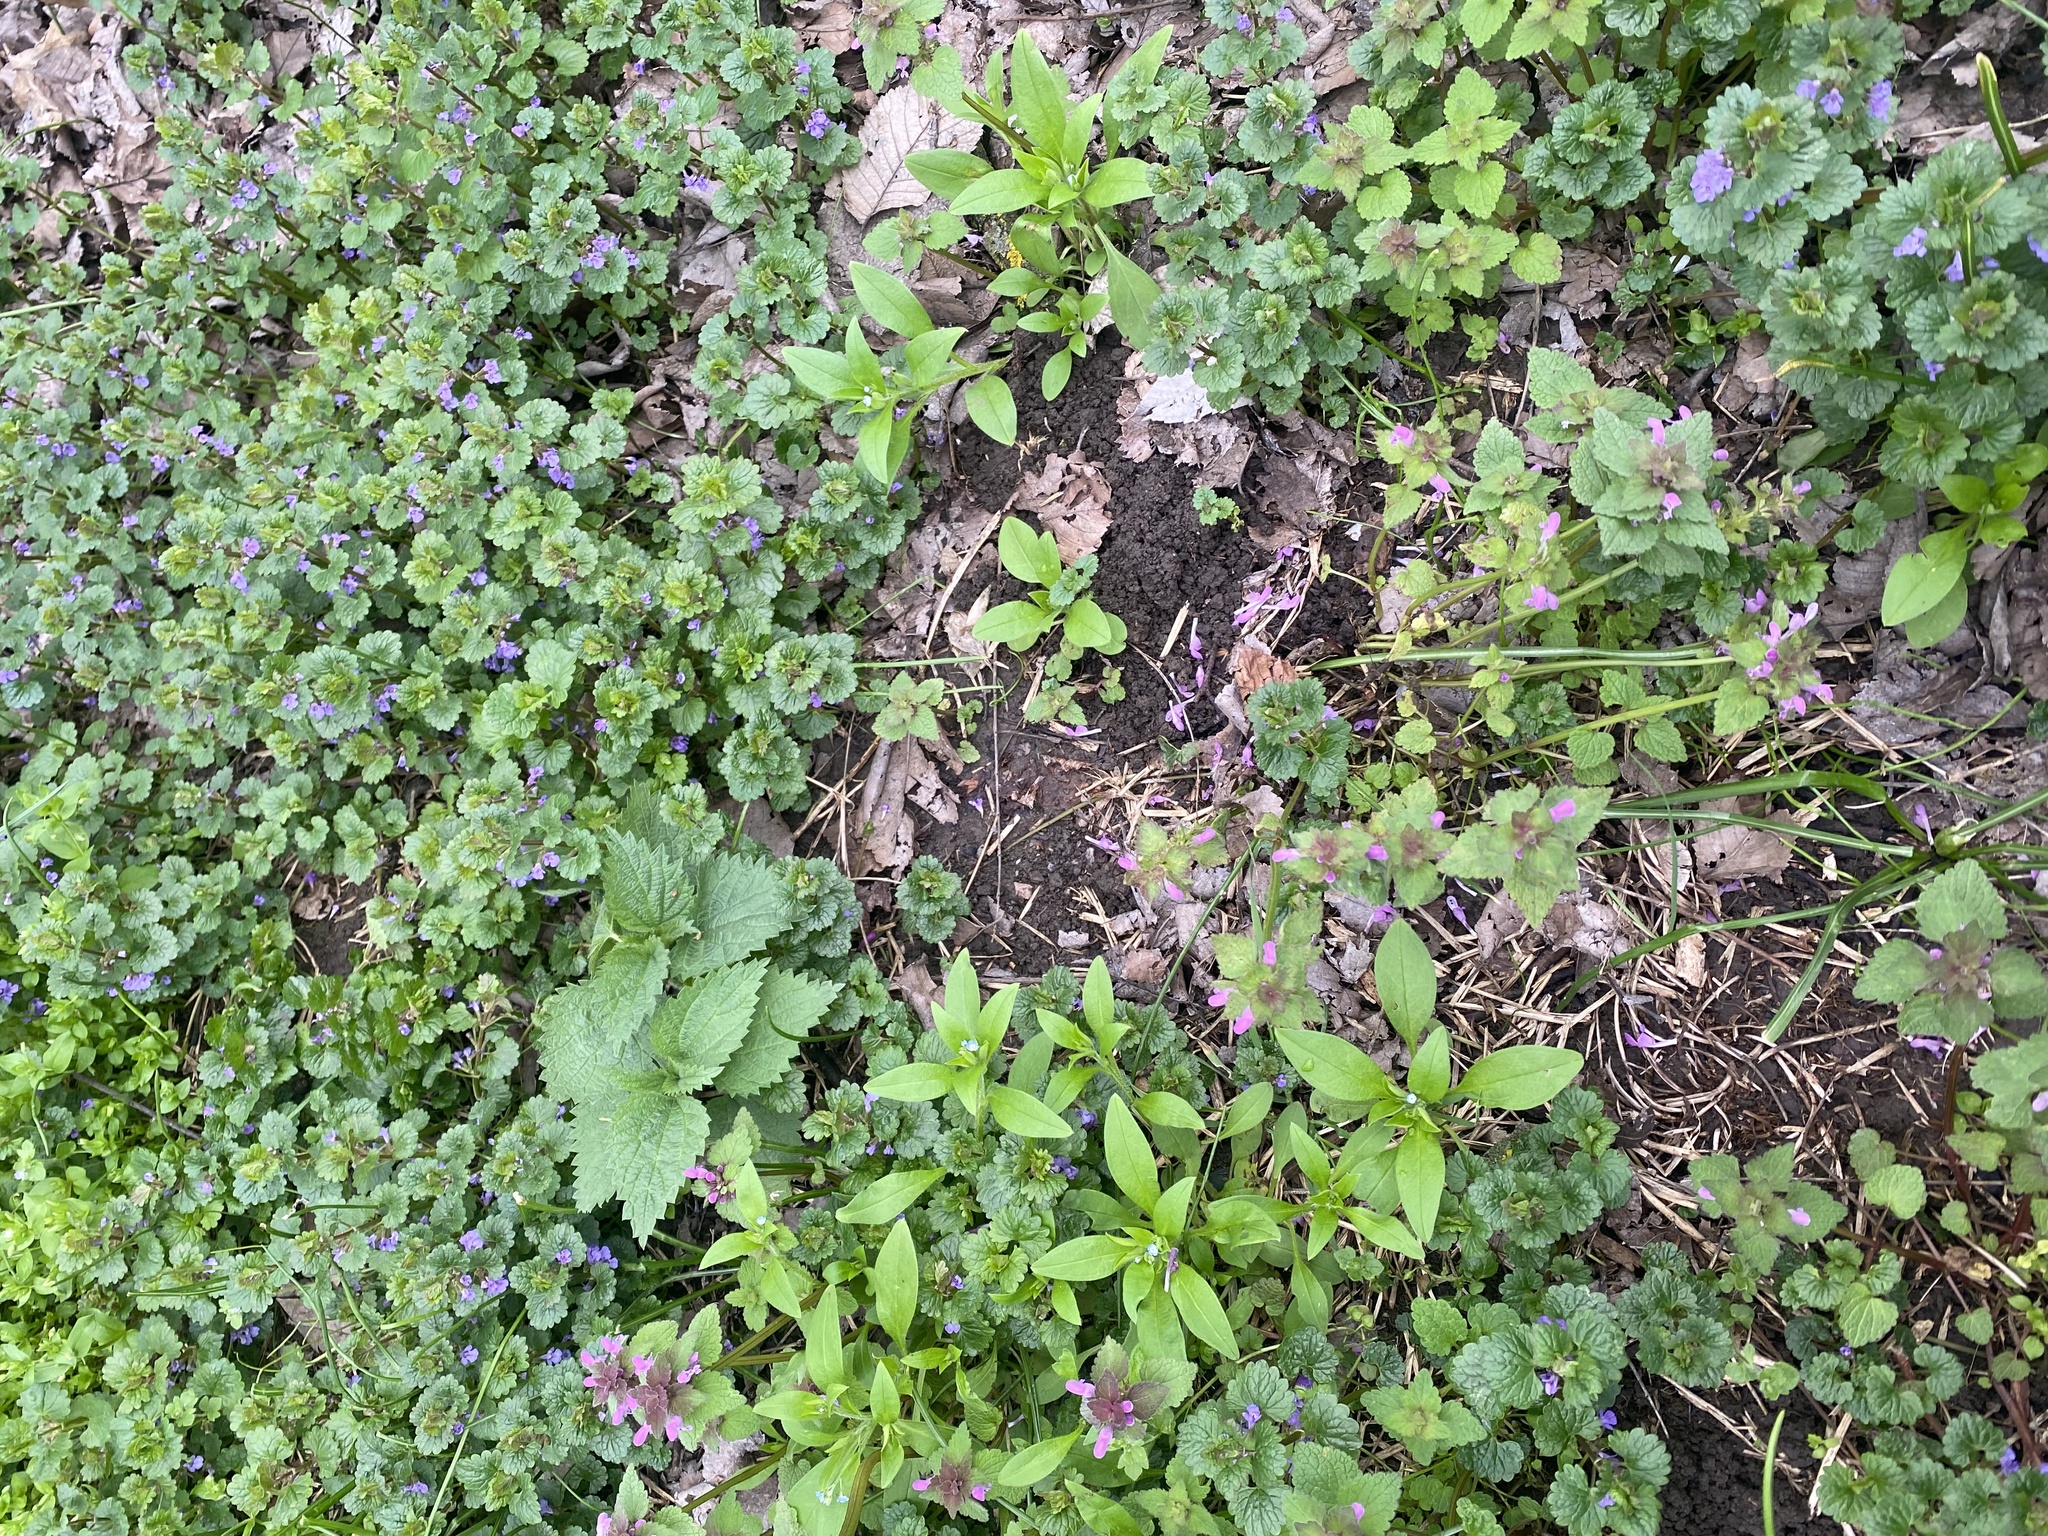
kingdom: Plantae
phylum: Tracheophyta
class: Magnoliopsida
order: Boraginales
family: Boraginaceae
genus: Myosotis
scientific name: Myosotis sparsiflora
